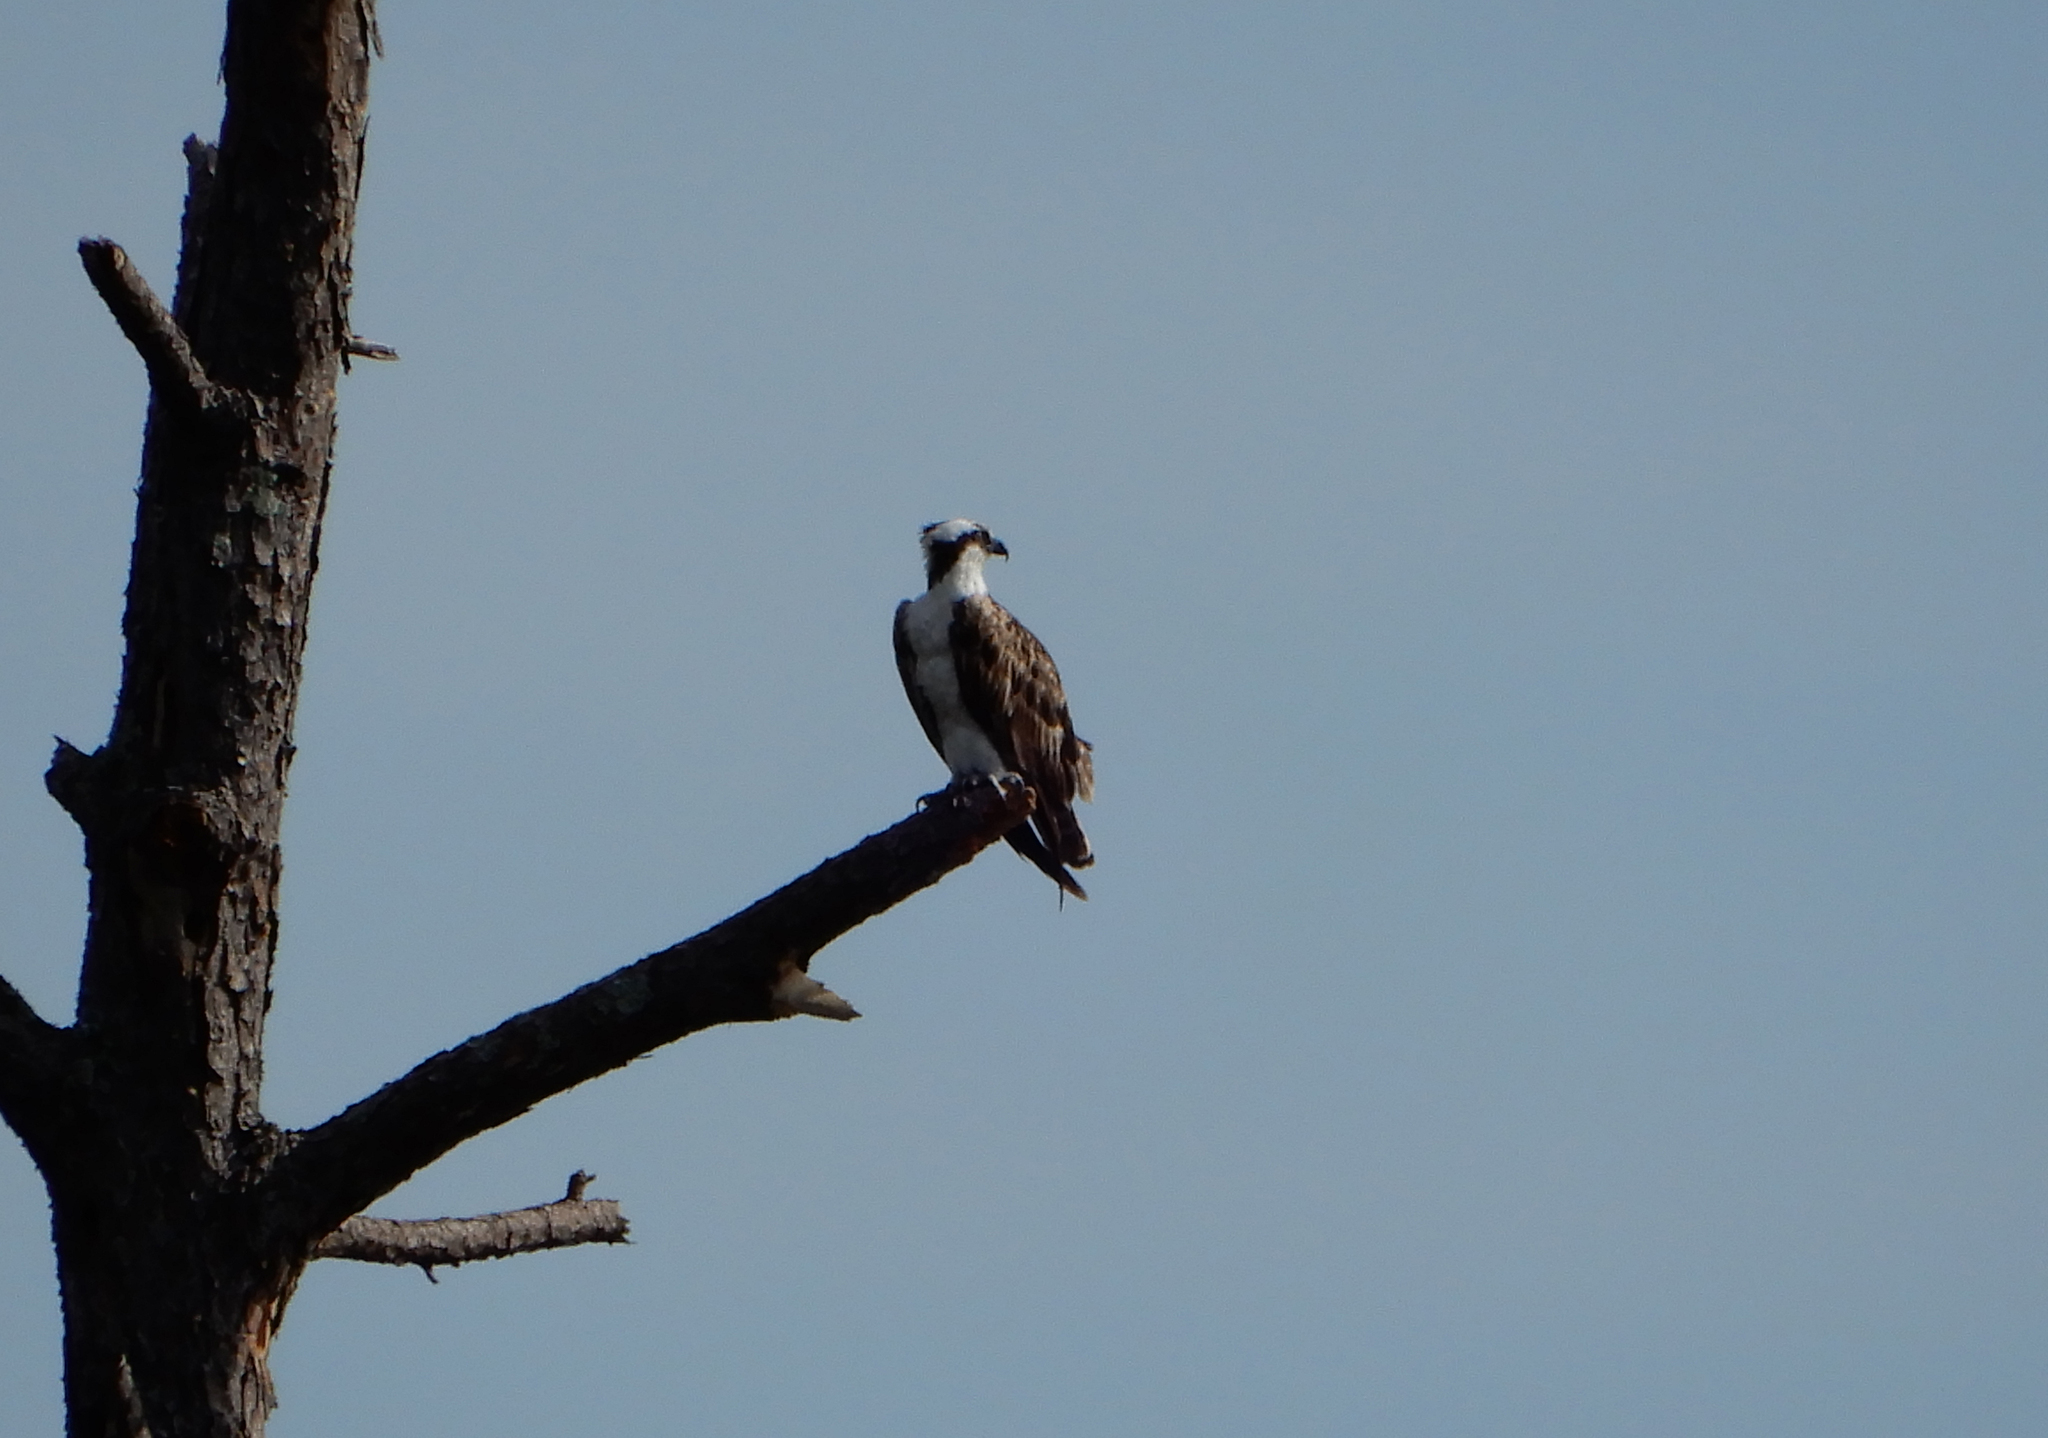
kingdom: Animalia
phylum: Chordata
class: Aves
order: Accipitriformes
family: Pandionidae
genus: Pandion
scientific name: Pandion haliaetus
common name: Osprey
